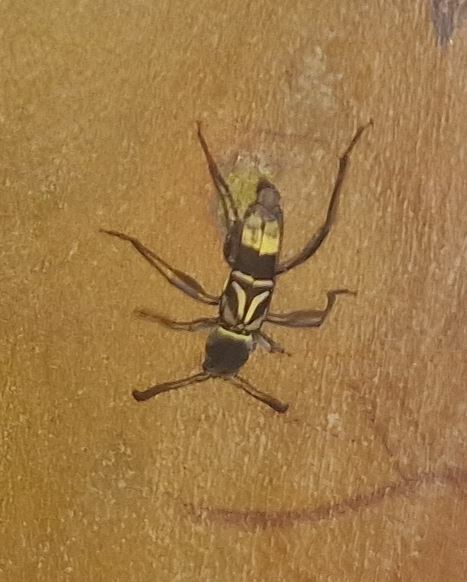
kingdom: Animalia
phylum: Arthropoda
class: Insecta
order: Coleoptera
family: Cerambycidae
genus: Neoclytus
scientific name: Neoclytus pusillus
